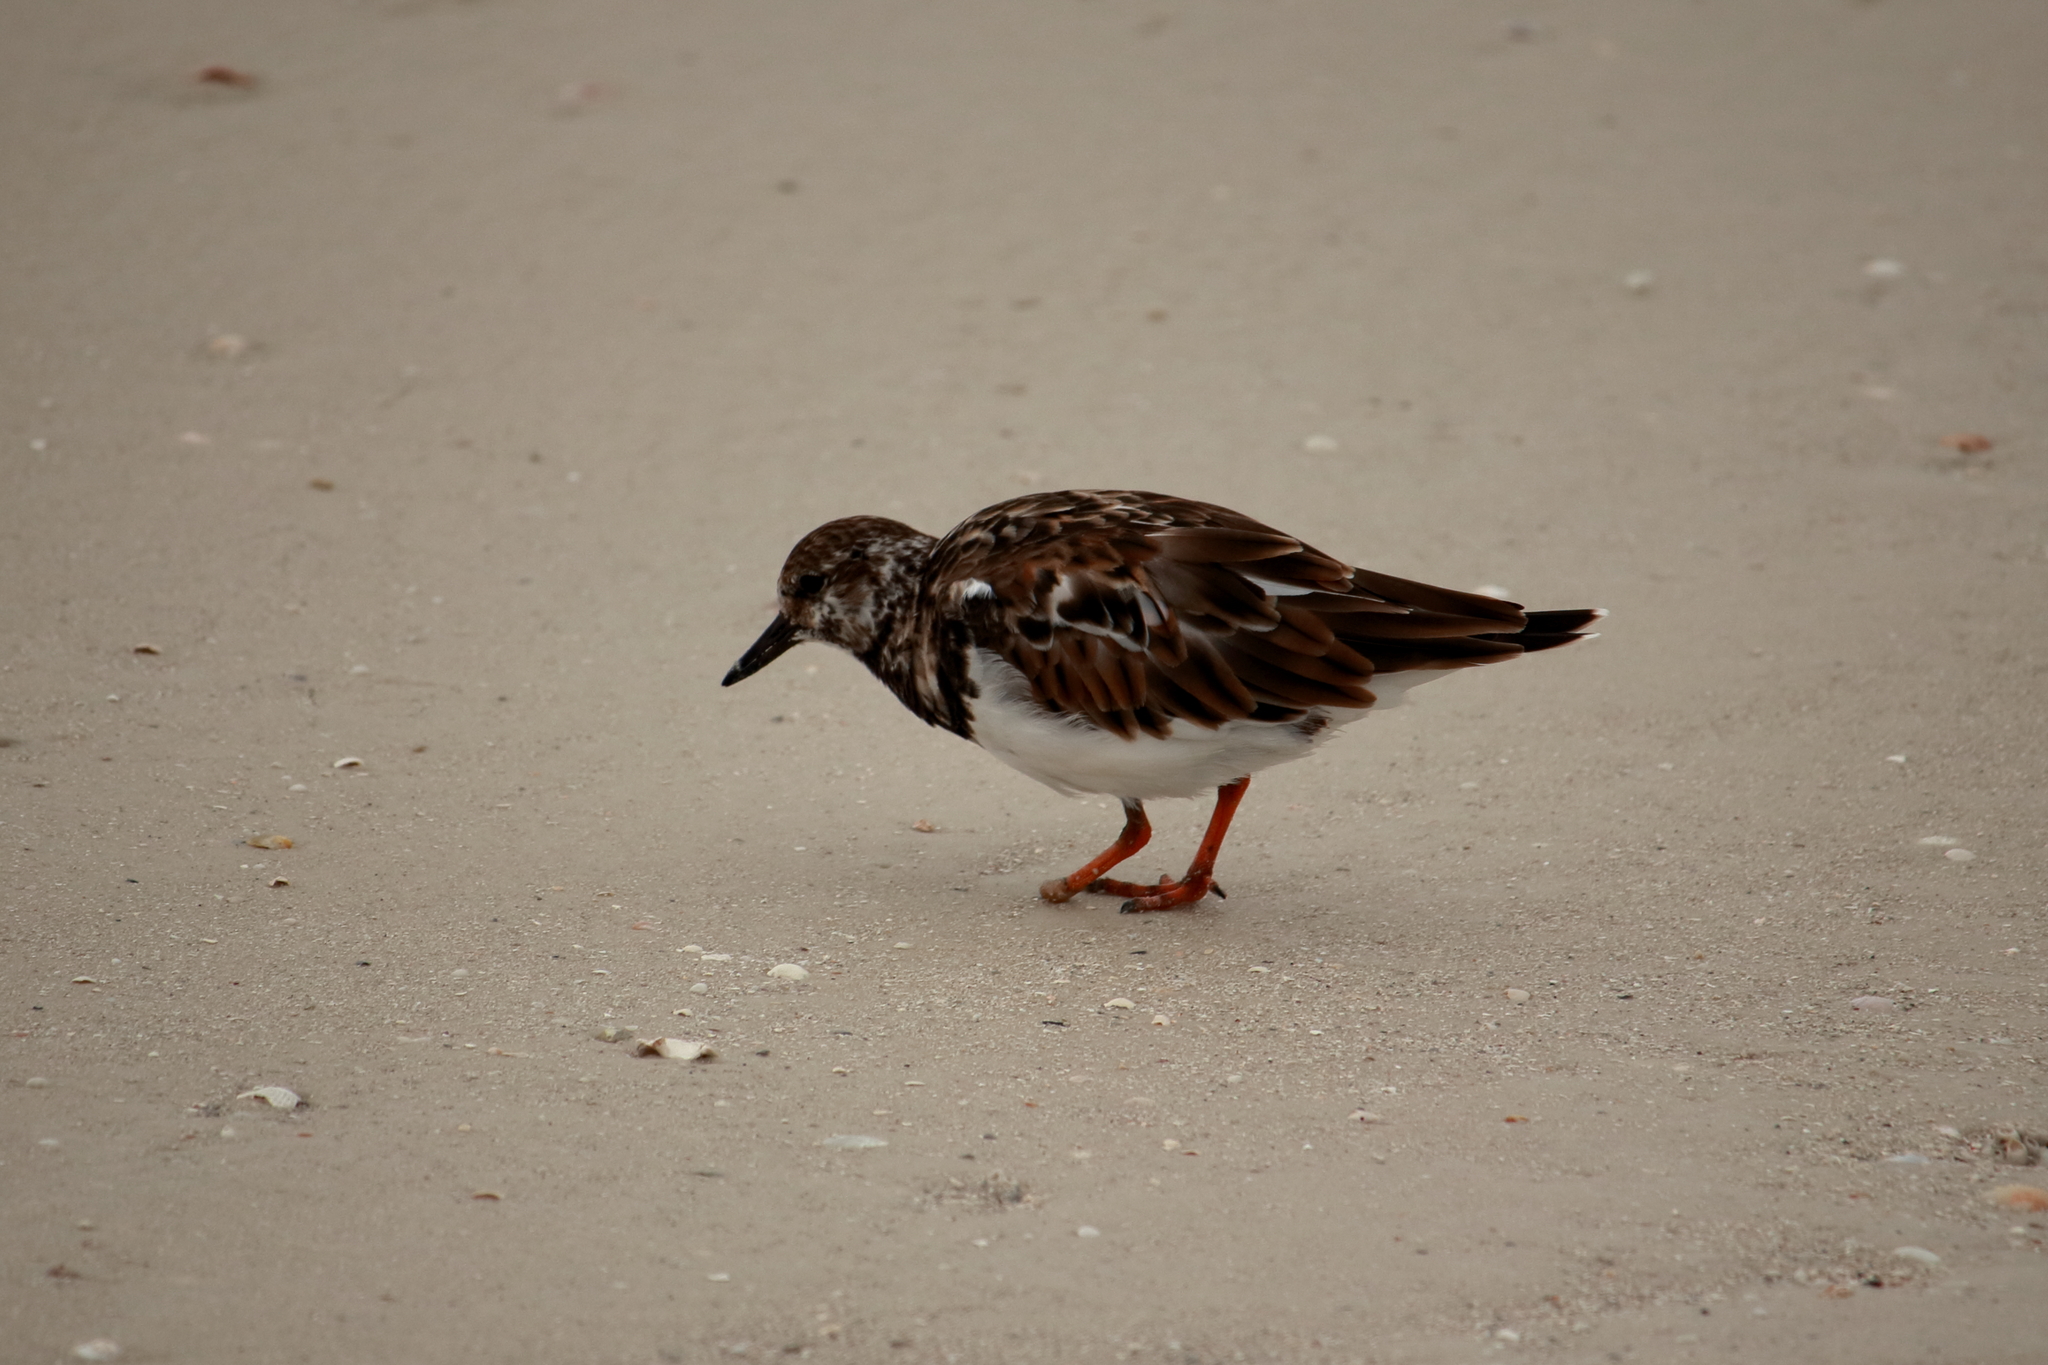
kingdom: Animalia
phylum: Chordata
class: Aves
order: Charadriiformes
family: Scolopacidae
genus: Arenaria
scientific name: Arenaria interpres
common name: Ruddy turnstone
